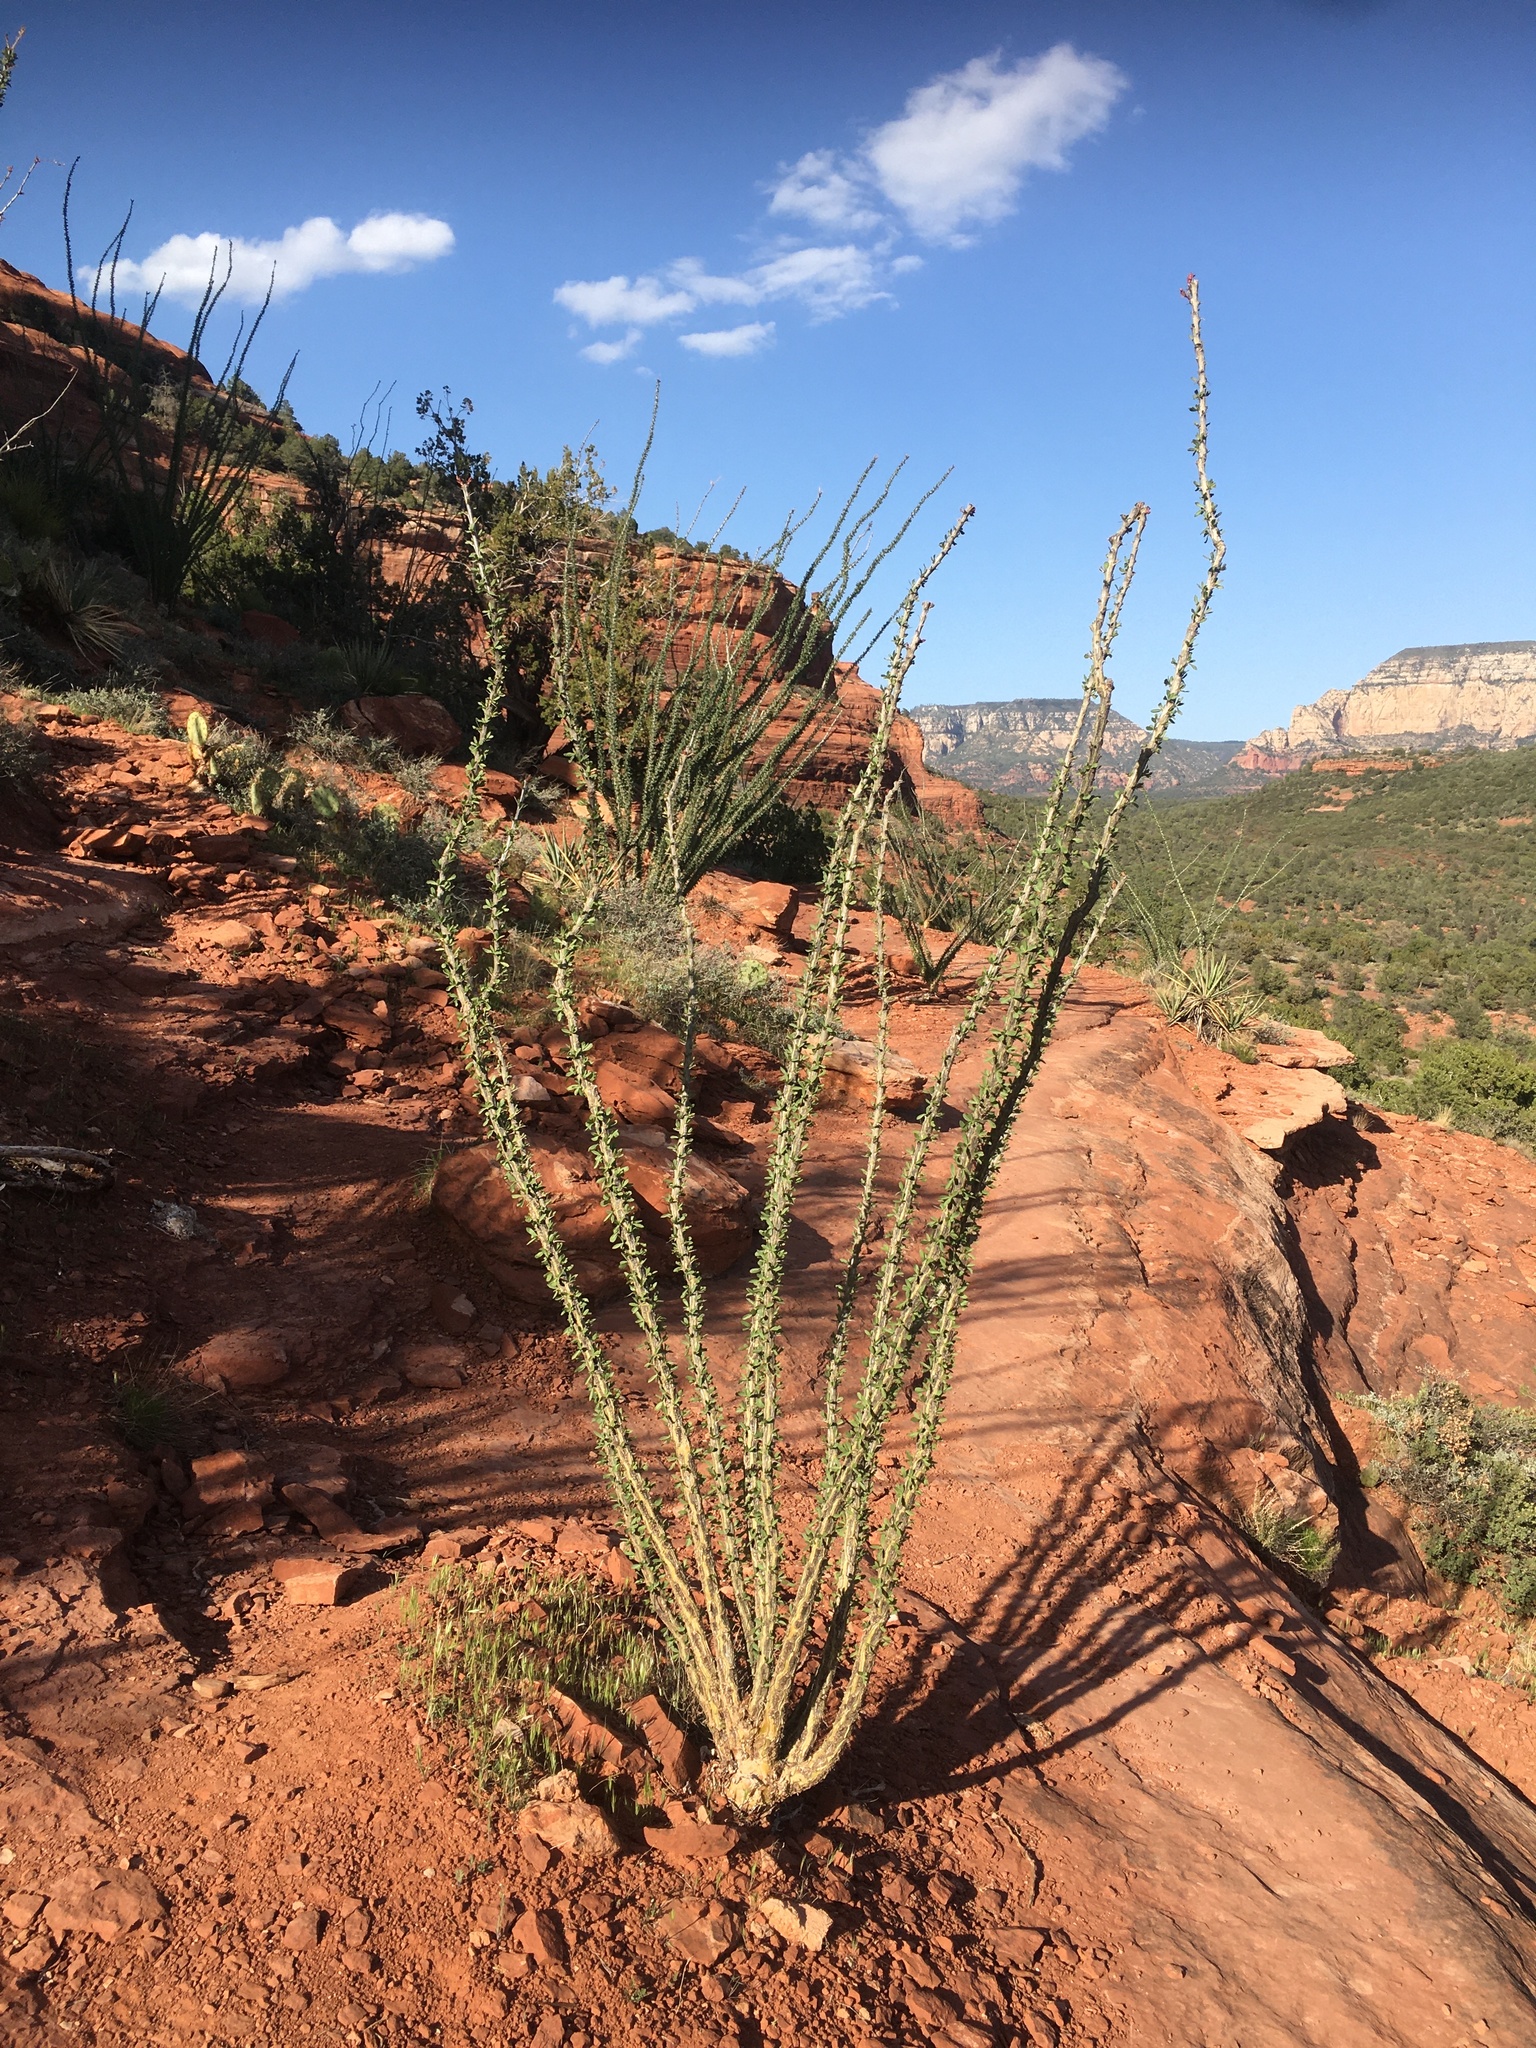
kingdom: Plantae
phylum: Tracheophyta
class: Magnoliopsida
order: Ericales
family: Fouquieriaceae
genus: Fouquieria
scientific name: Fouquieria splendens
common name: Vine-cactus
